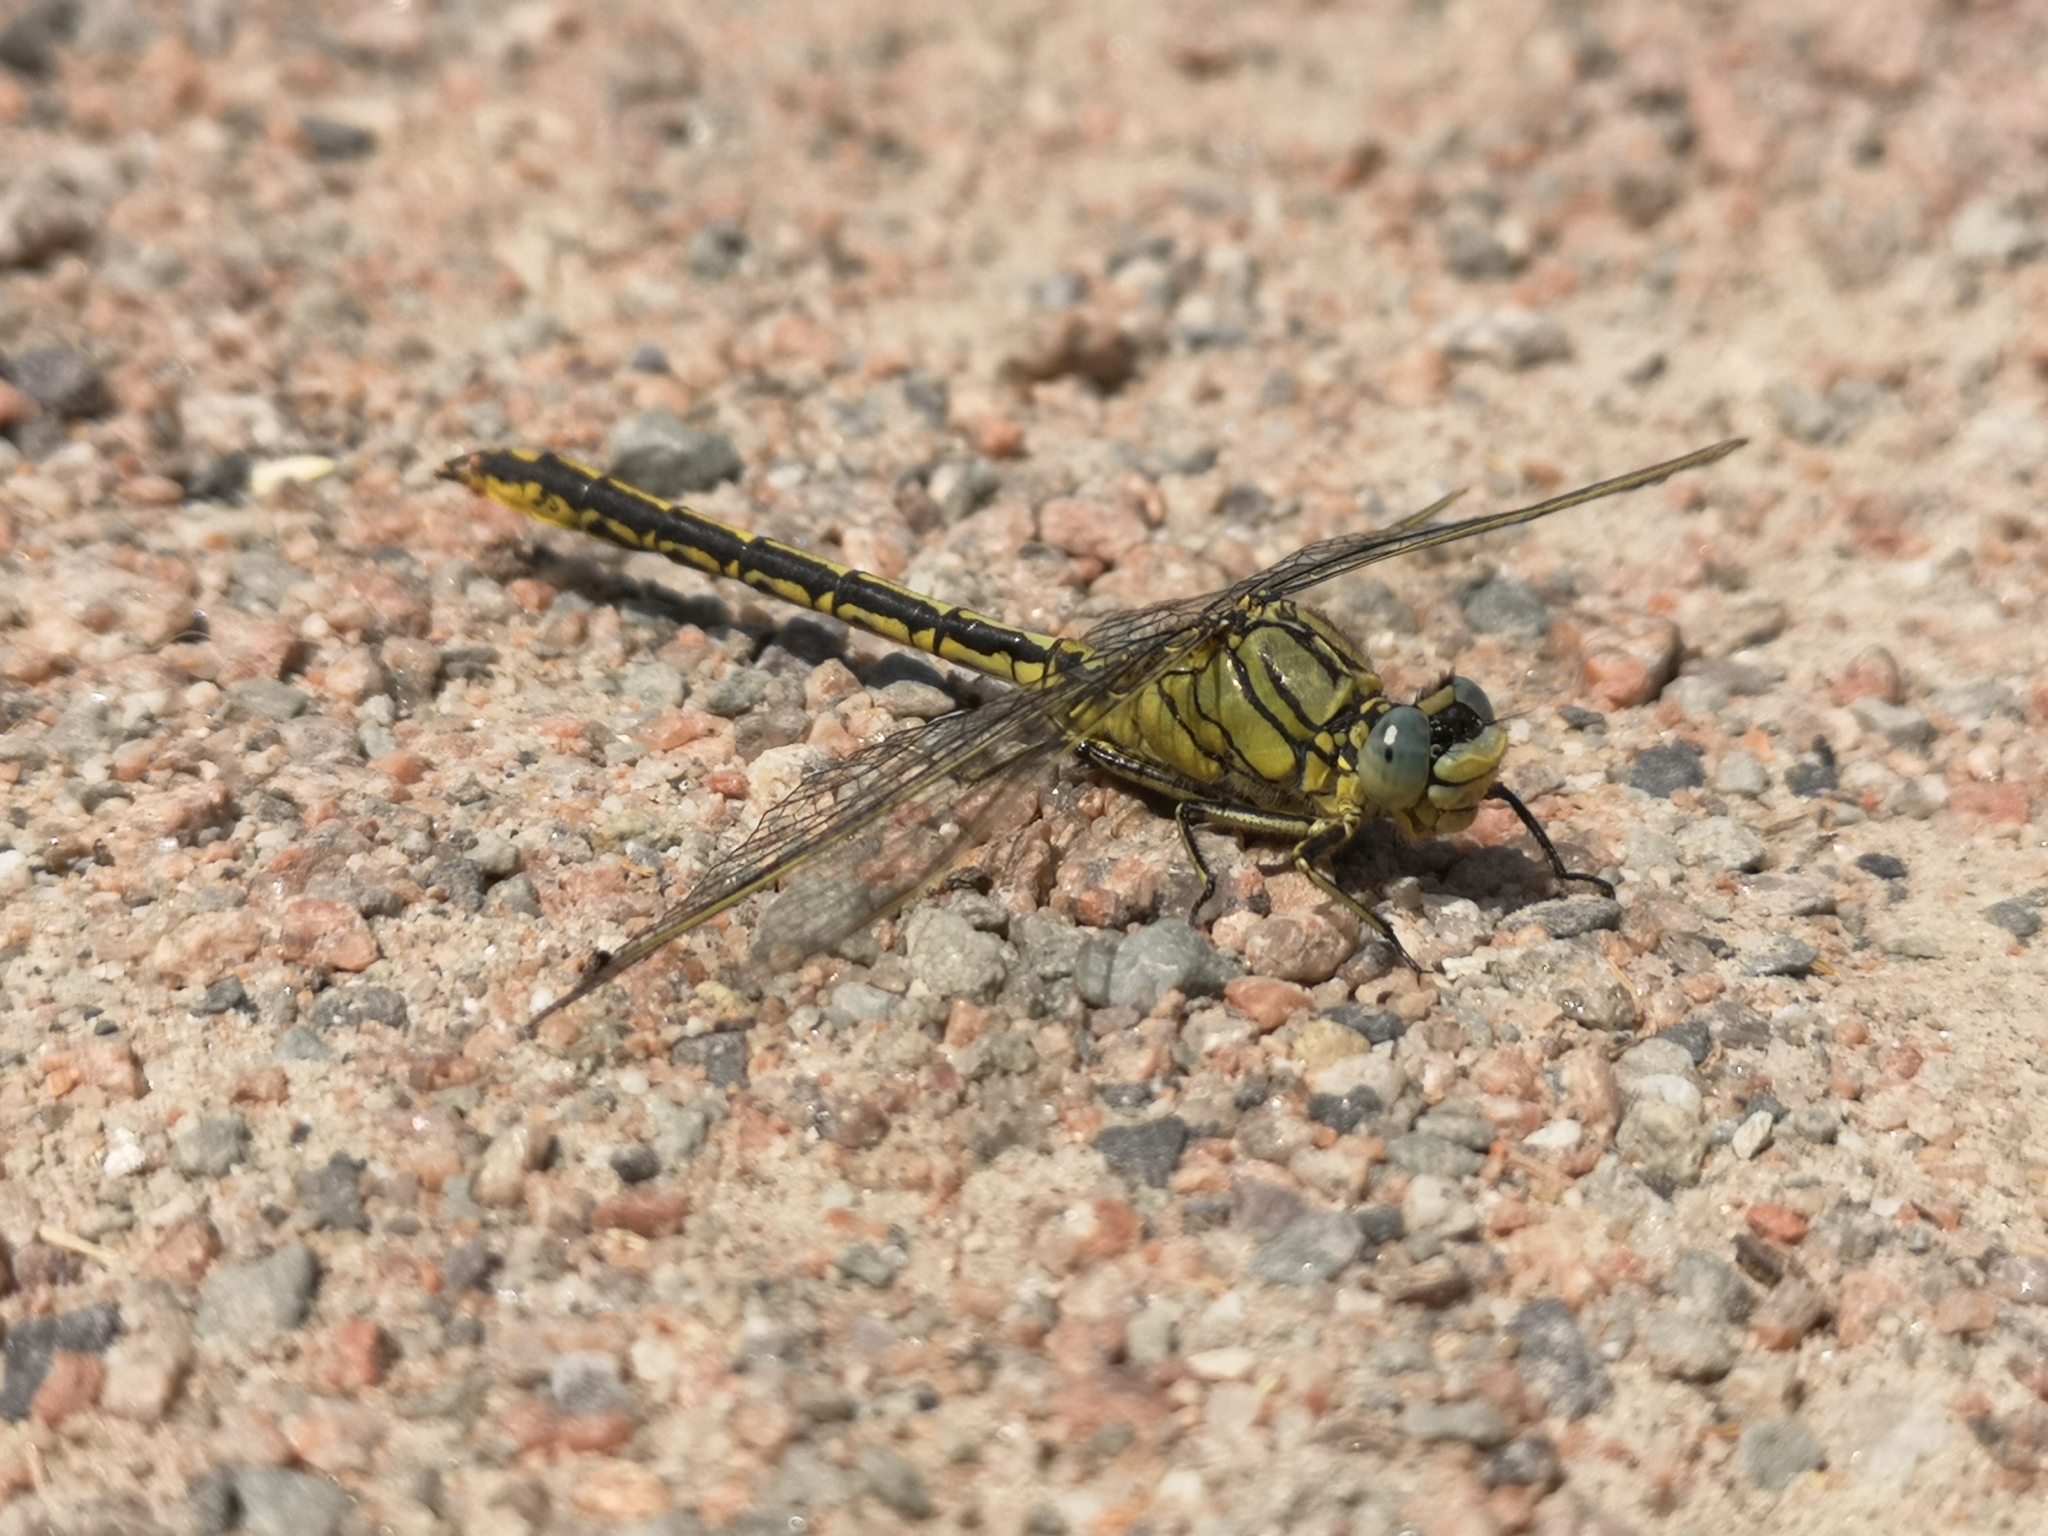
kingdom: Animalia
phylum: Arthropoda
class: Insecta
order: Odonata
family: Gomphidae
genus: Gomphus
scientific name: Gomphus pulchellus
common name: Western clubtail
